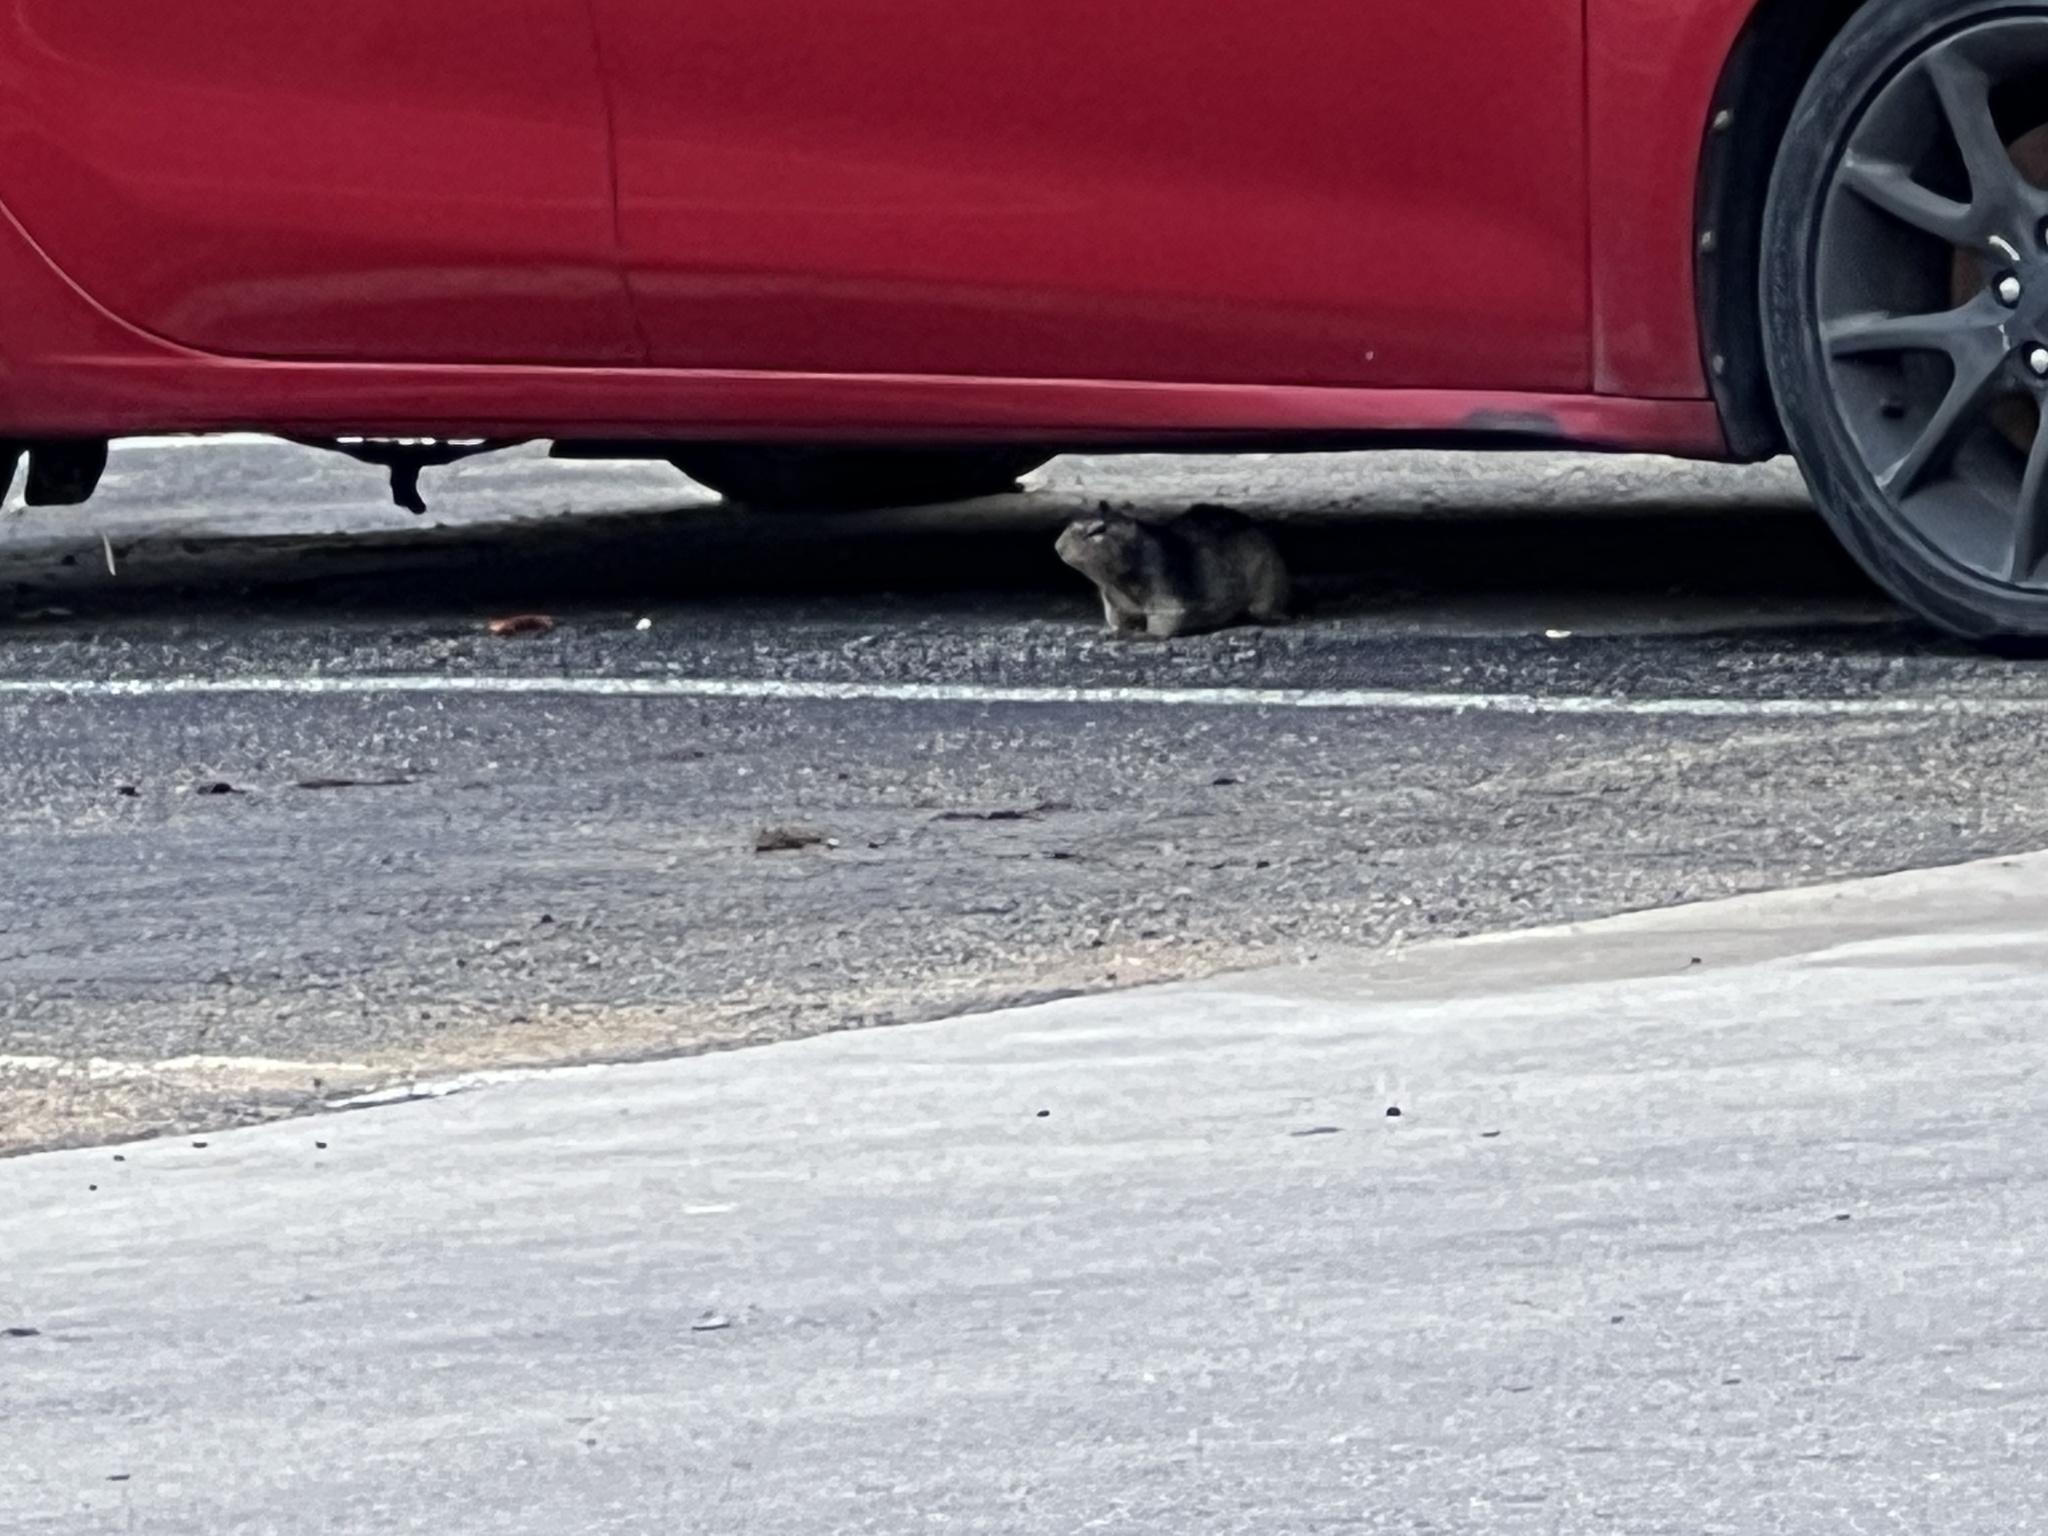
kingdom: Animalia
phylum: Chordata
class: Mammalia
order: Rodentia
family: Sciuridae
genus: Otospermophilus
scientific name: Otospermophilus variegatus
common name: Rock squirrel
